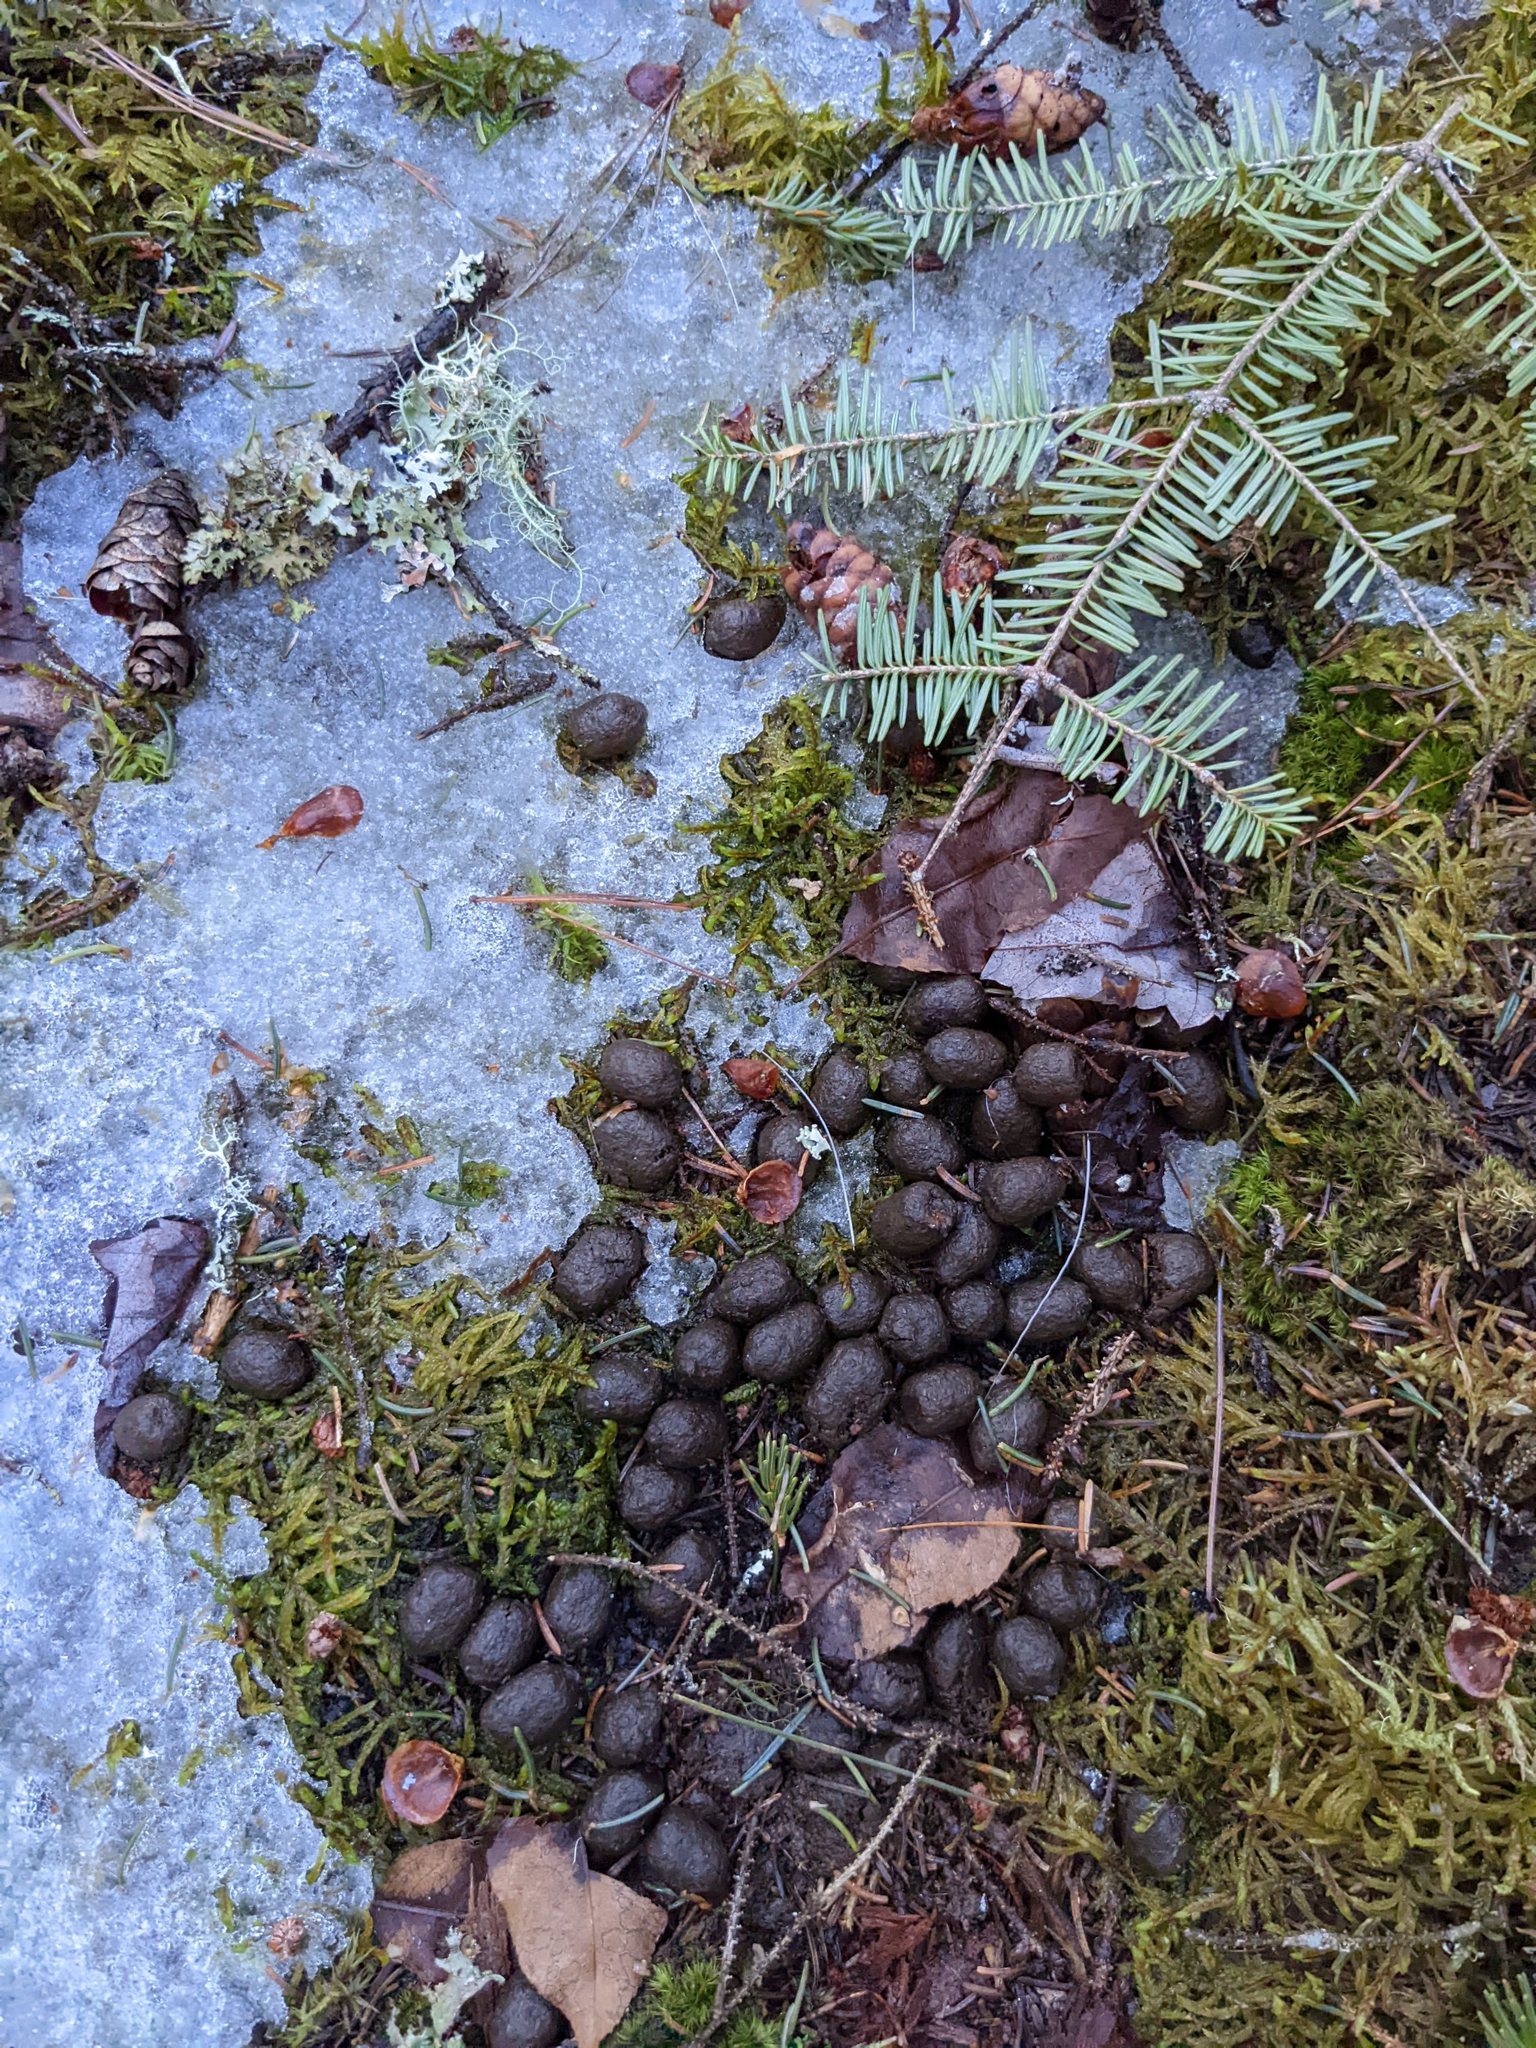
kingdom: Animalia
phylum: Chordata
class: Mammalia
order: Artiodactyla
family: Cervidae
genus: Odocoileus
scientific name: Odocoileus virginianus
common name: White-tailed deer
